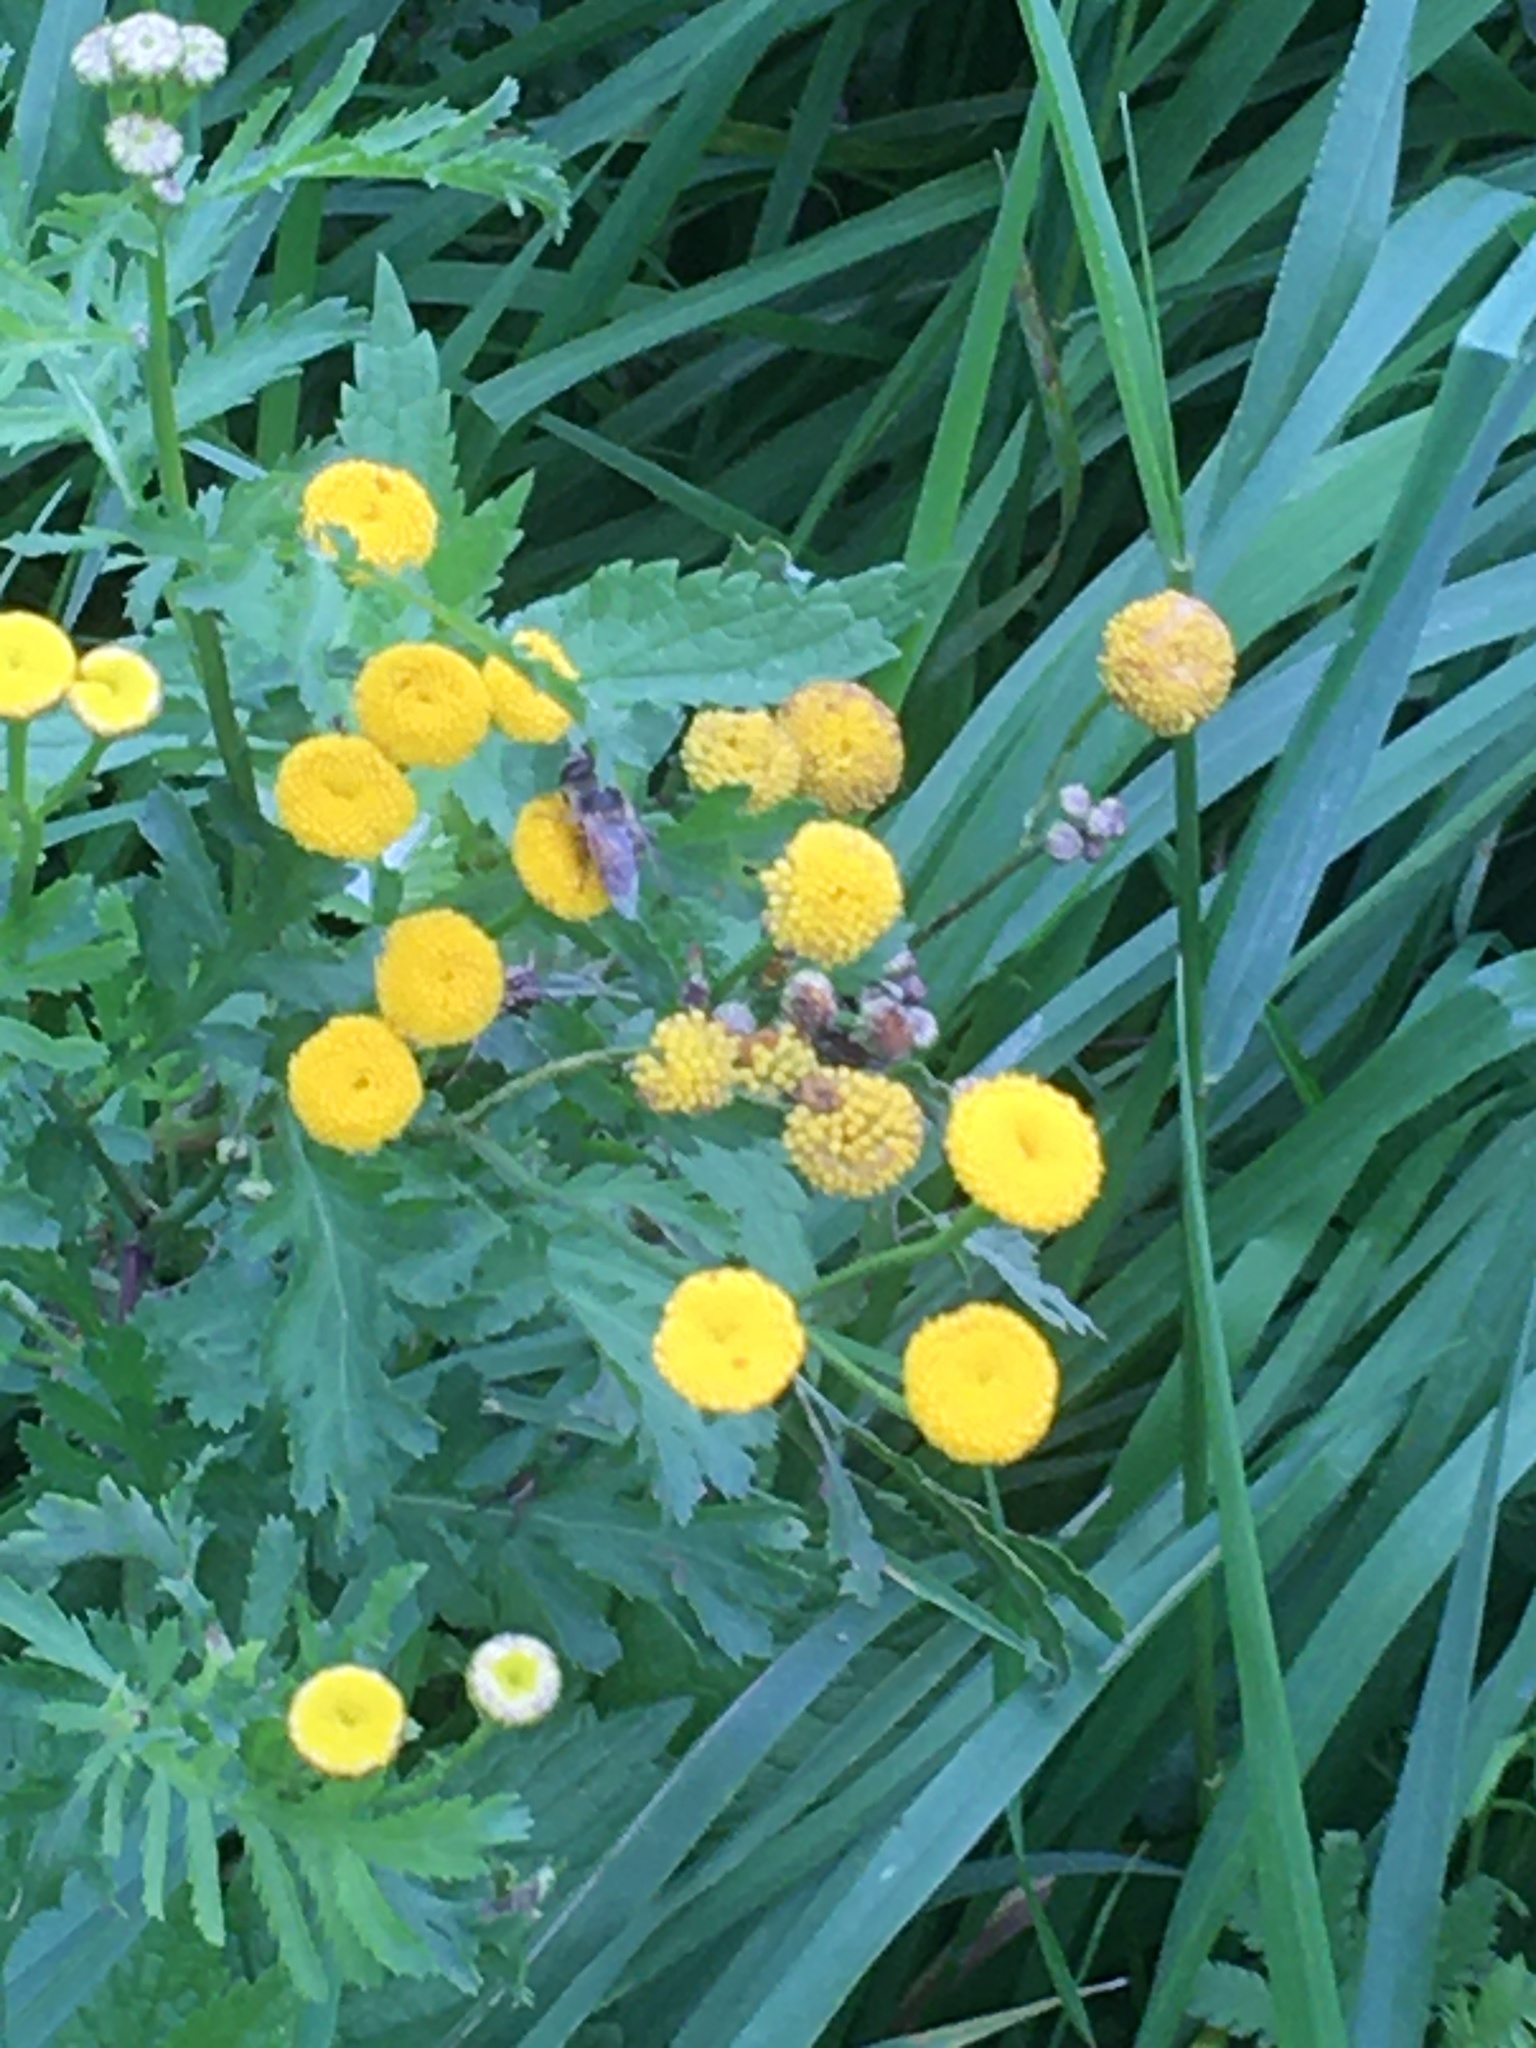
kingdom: Plantae
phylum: Tracheophyta
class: Magnoliopsida
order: Asterales
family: Asteraceae
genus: Tanacetum
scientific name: Tanacetum vulgare
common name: Common tansy
